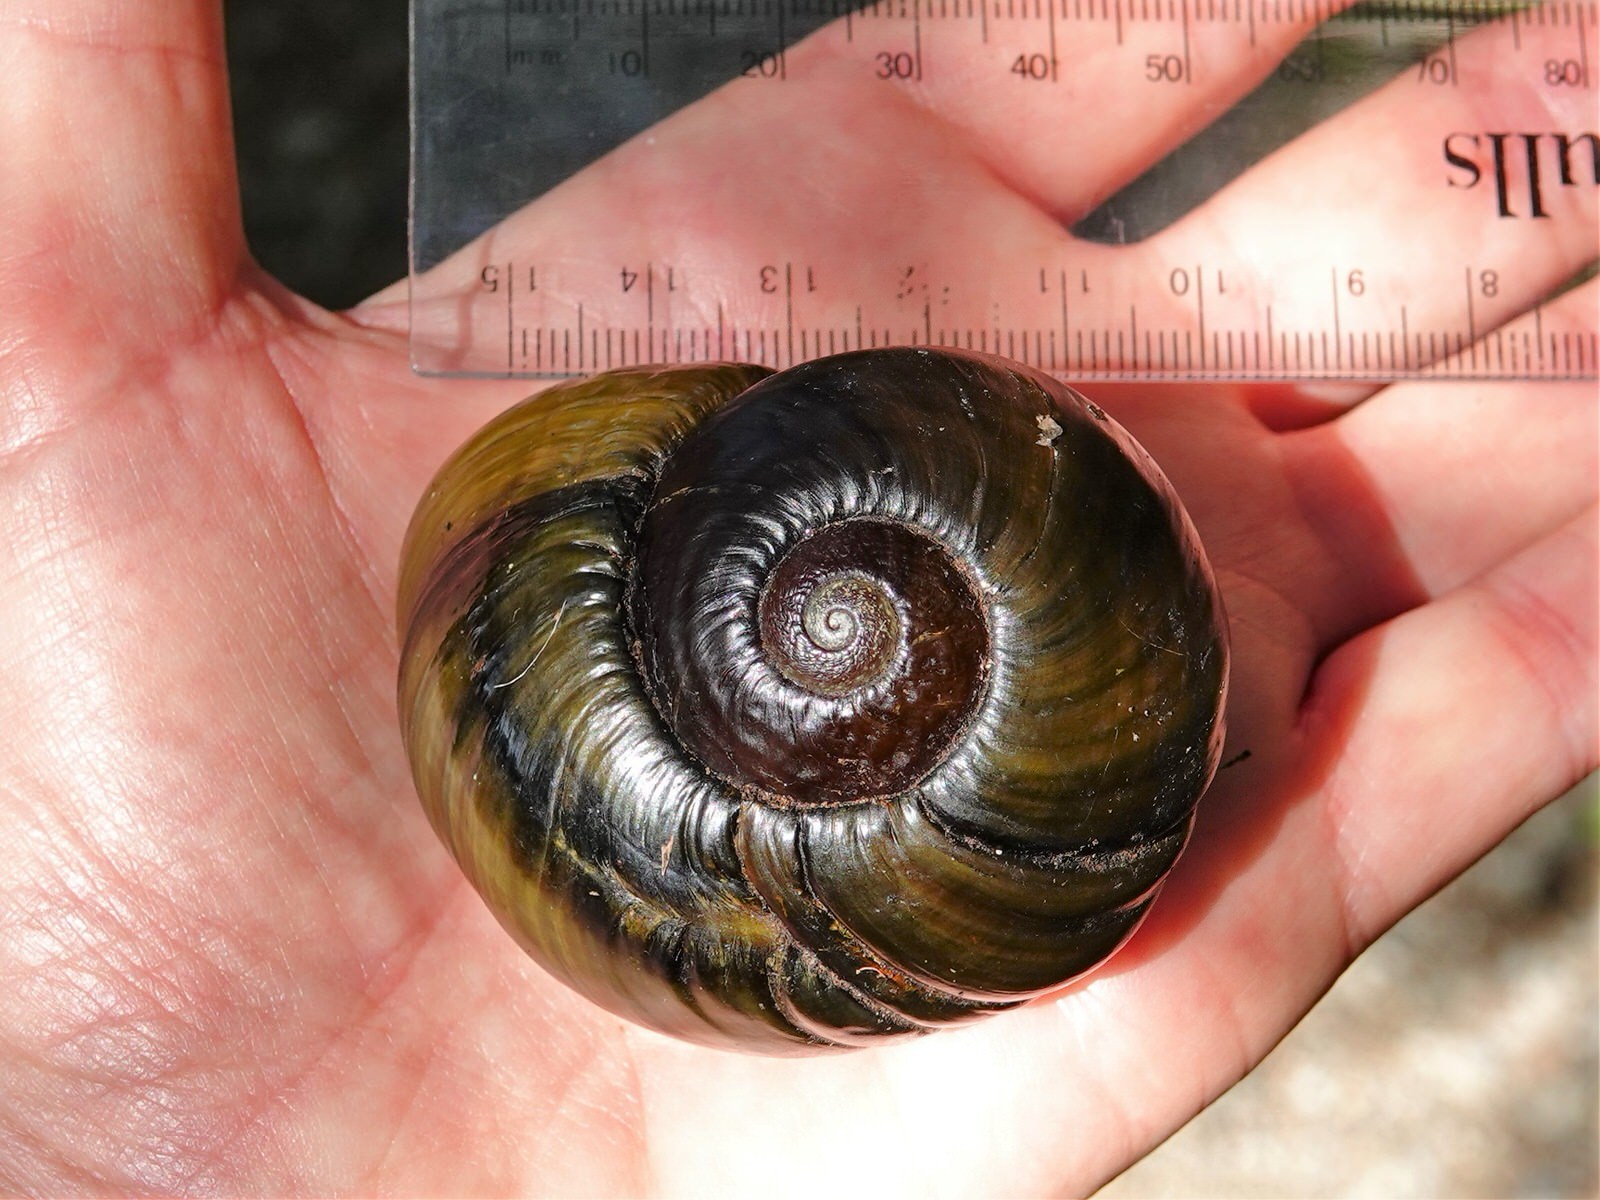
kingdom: Animalia
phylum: Mollusca
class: Gastropoda
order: Stylommatophora
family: Rhytididae
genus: Paryphanta
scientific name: Paryphanta busbyi
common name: Kauri snail
